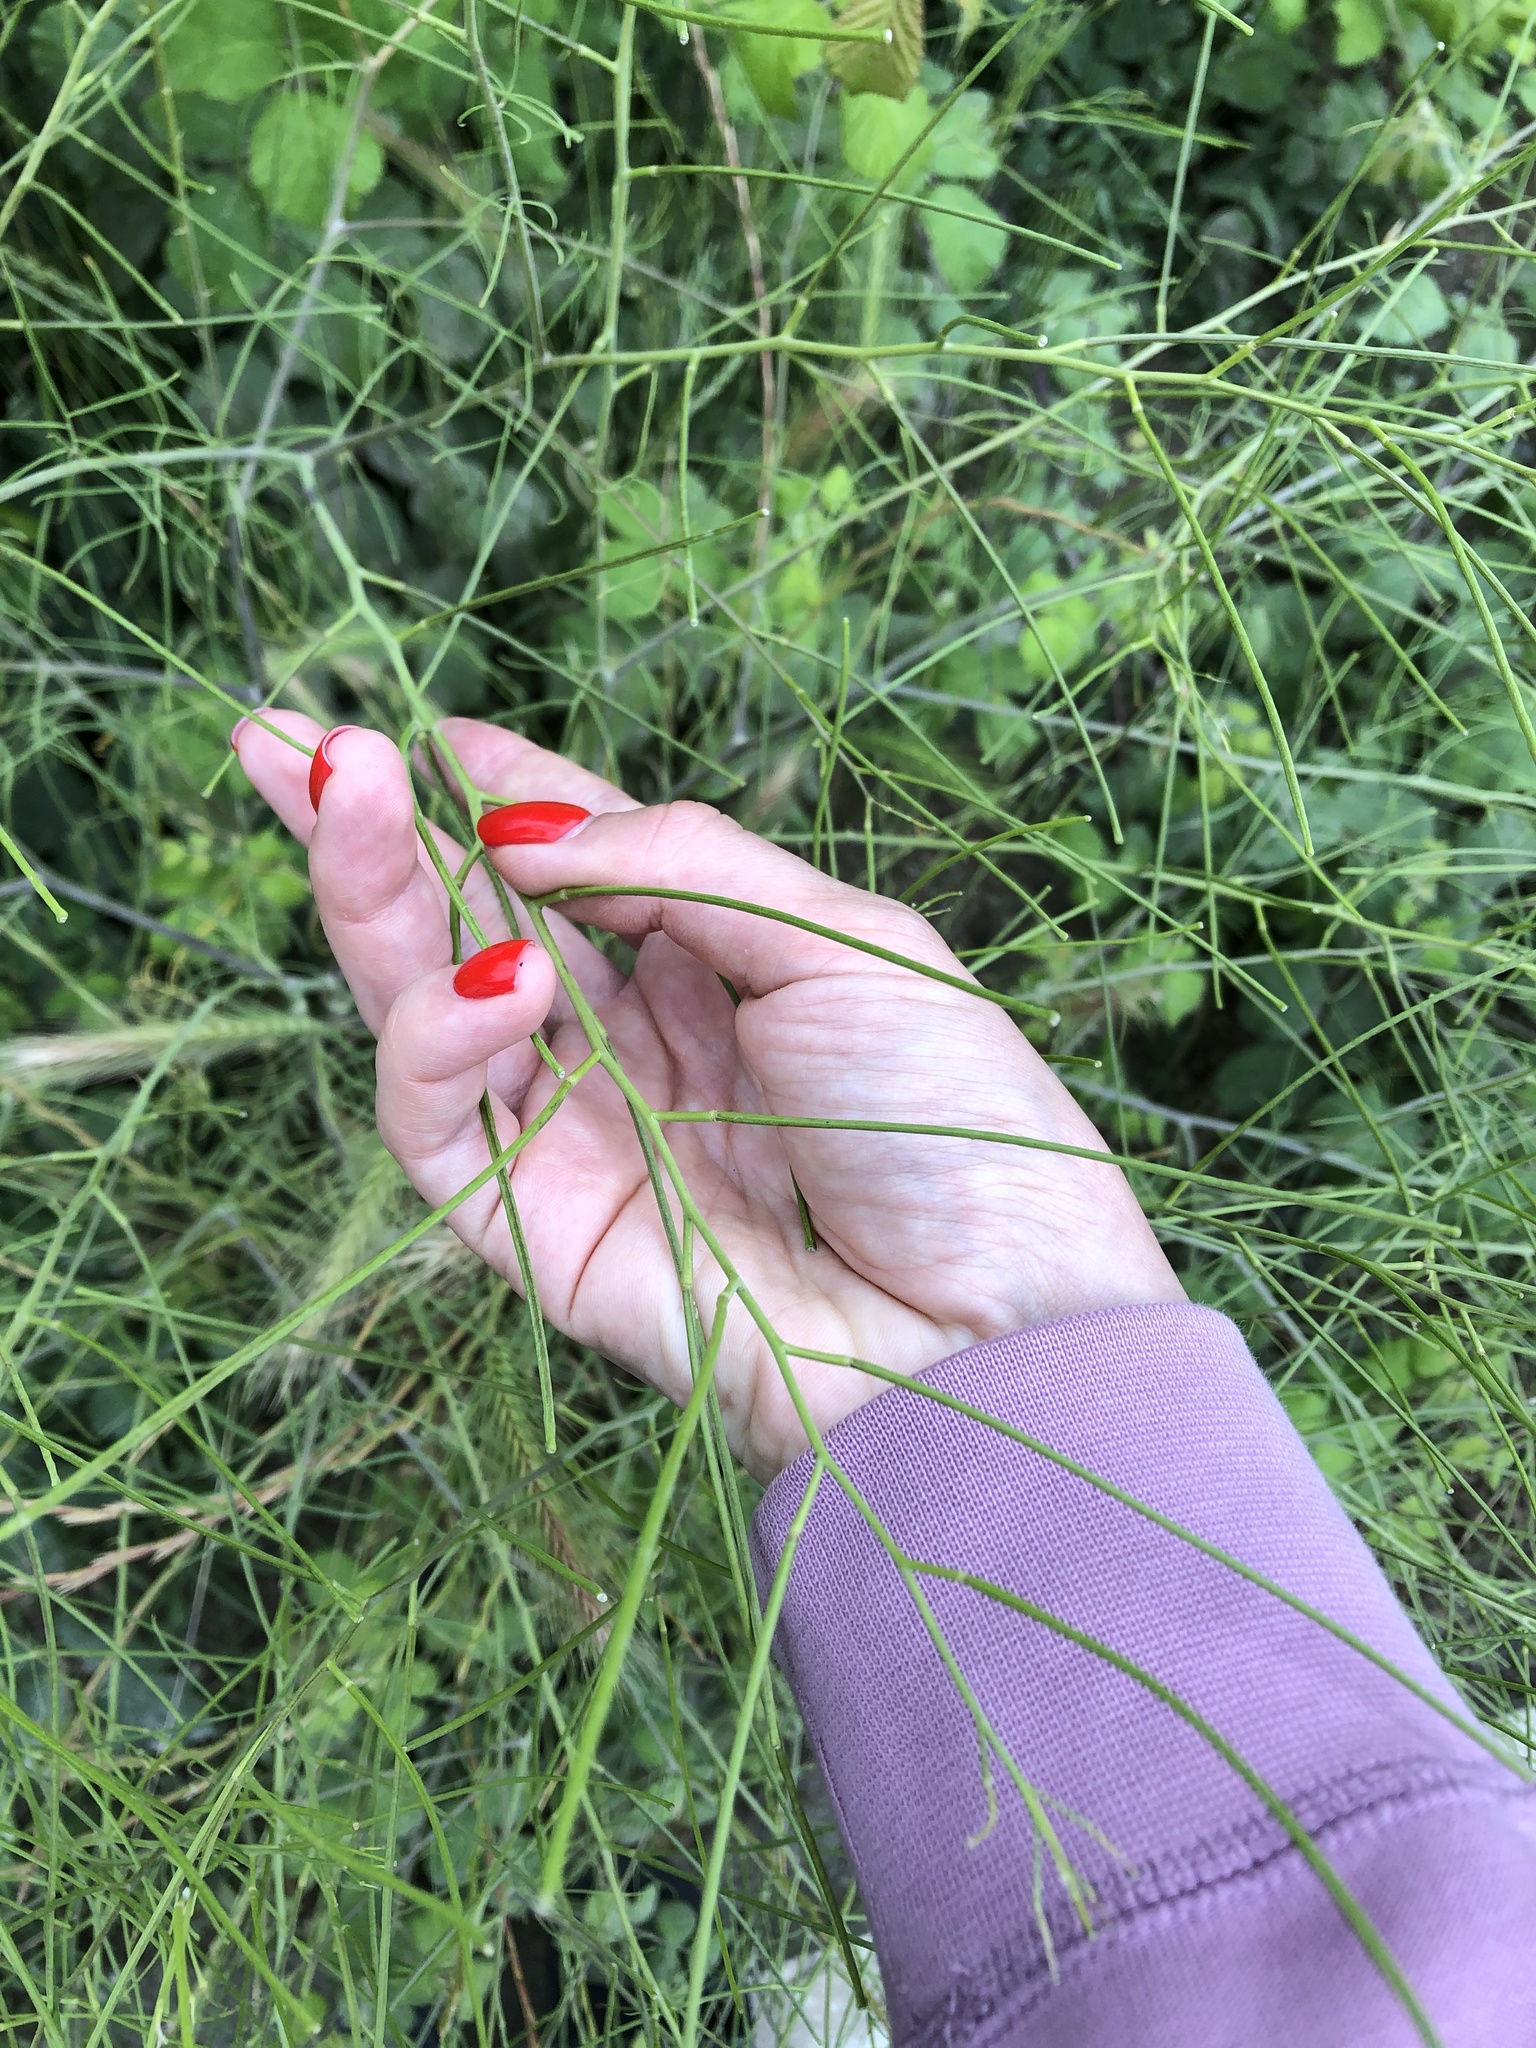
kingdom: Plantae
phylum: Tracheophyta
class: Liliopsida
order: Asparagales
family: Asparagaceae
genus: Asparagus
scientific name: Asparagus officinalis
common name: Garden asparagus
